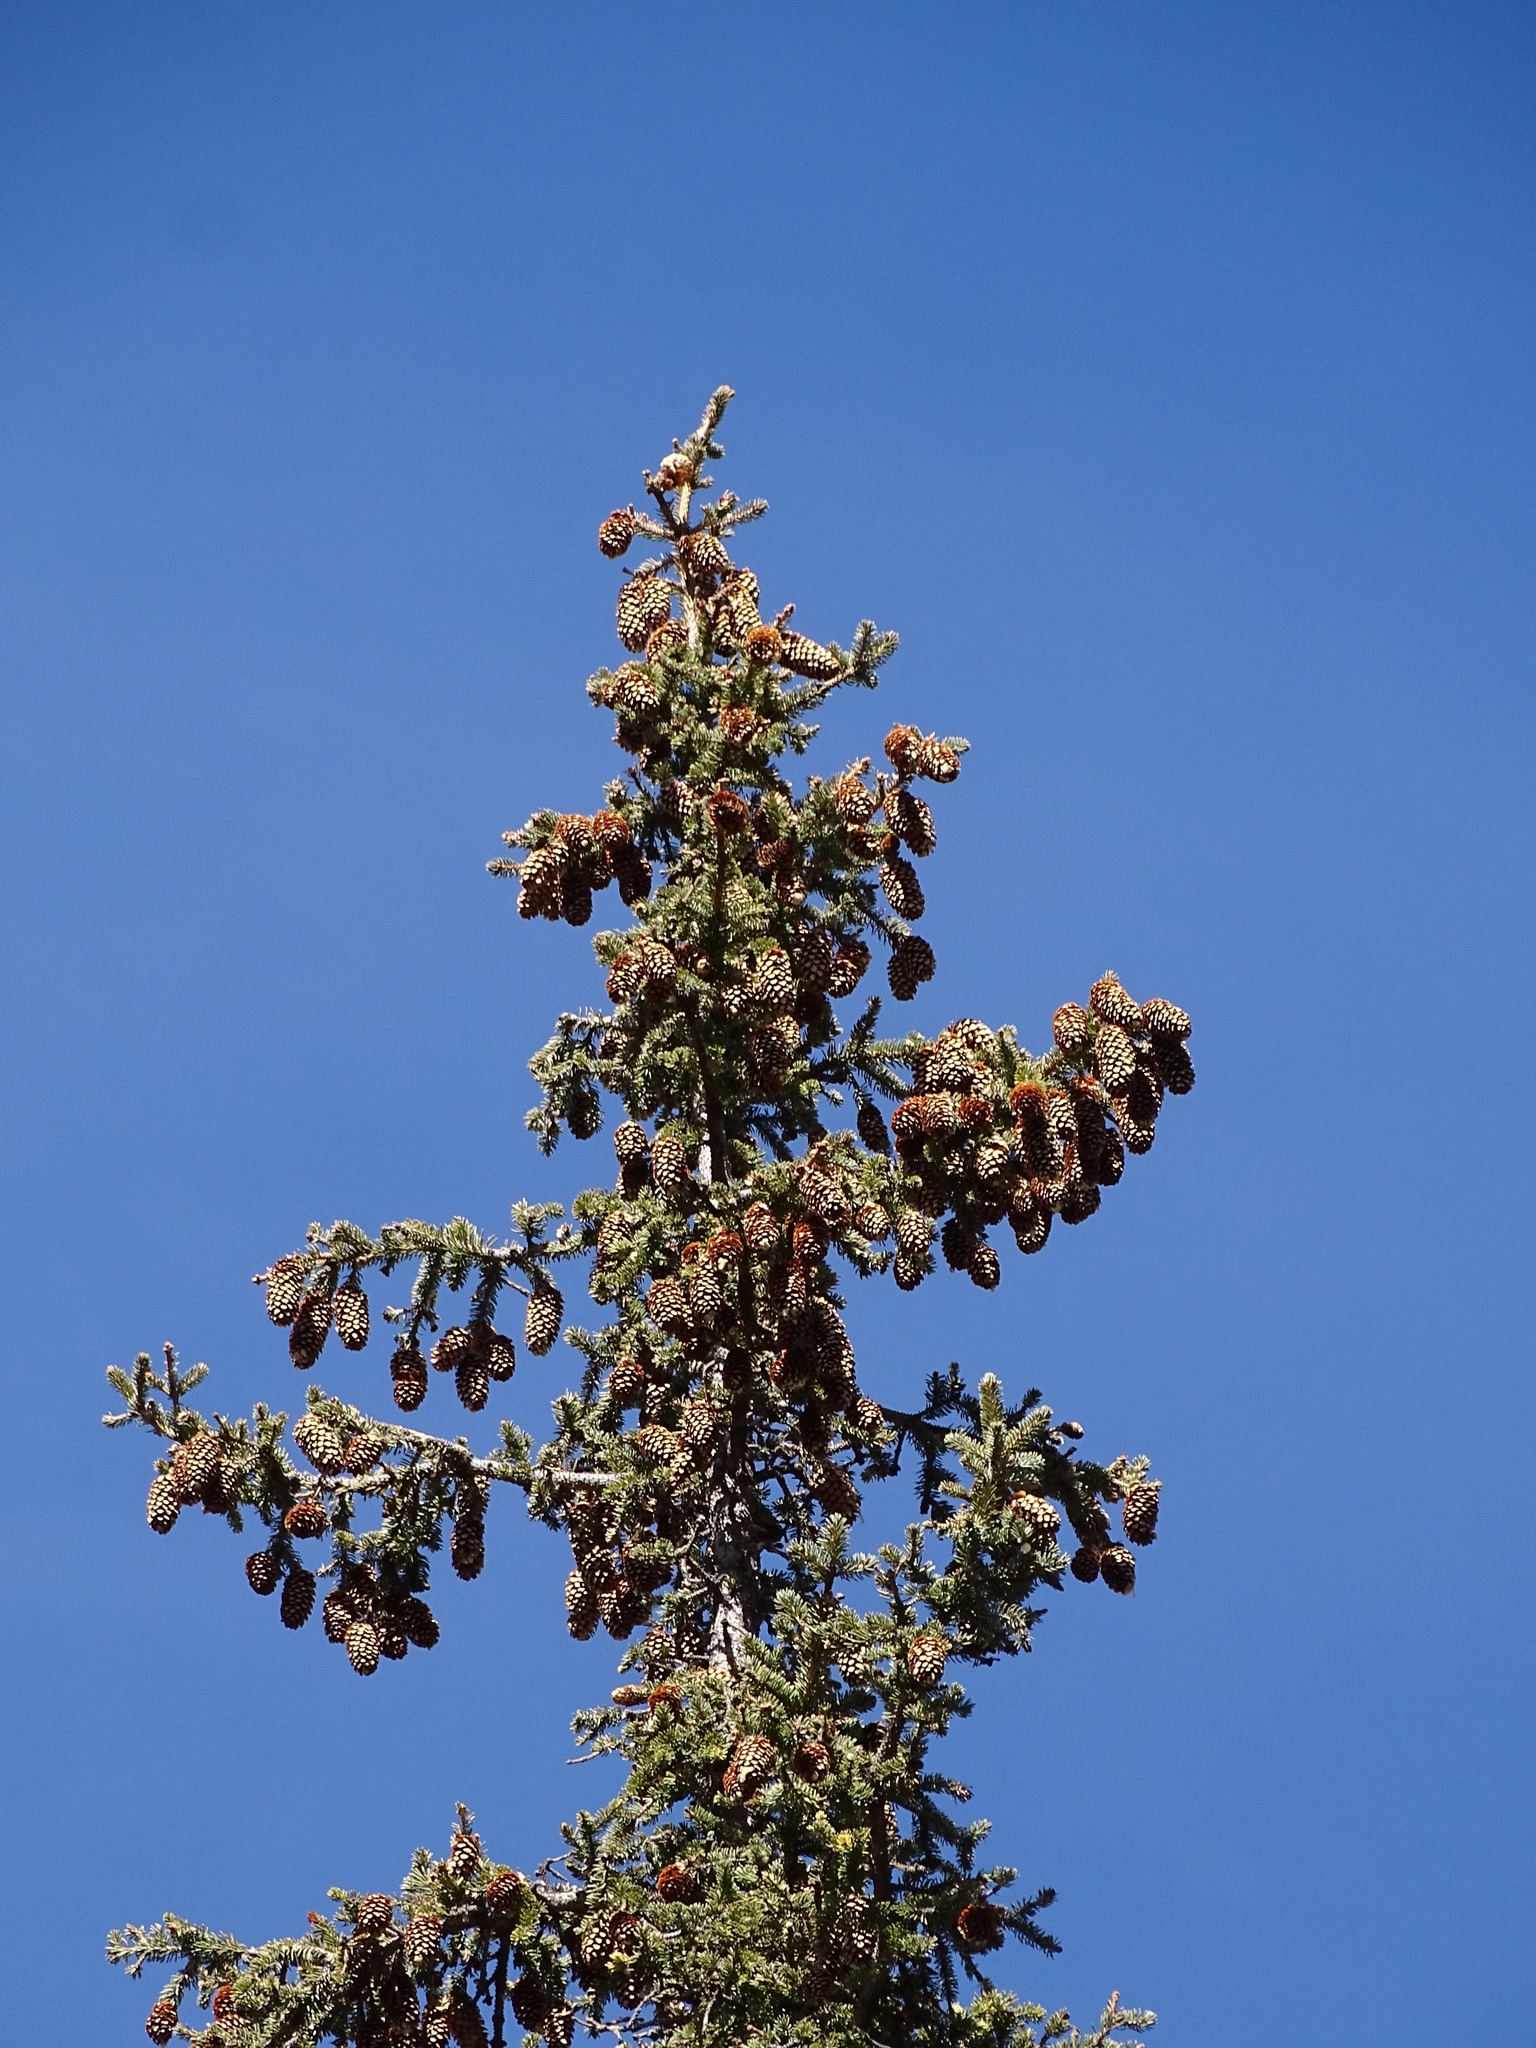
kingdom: Plantae
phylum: Tracheophyta
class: Pinopsida
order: Pinales
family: Pinaceae
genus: Picea
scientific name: Picea engelmannii
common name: Engelmann spruce
